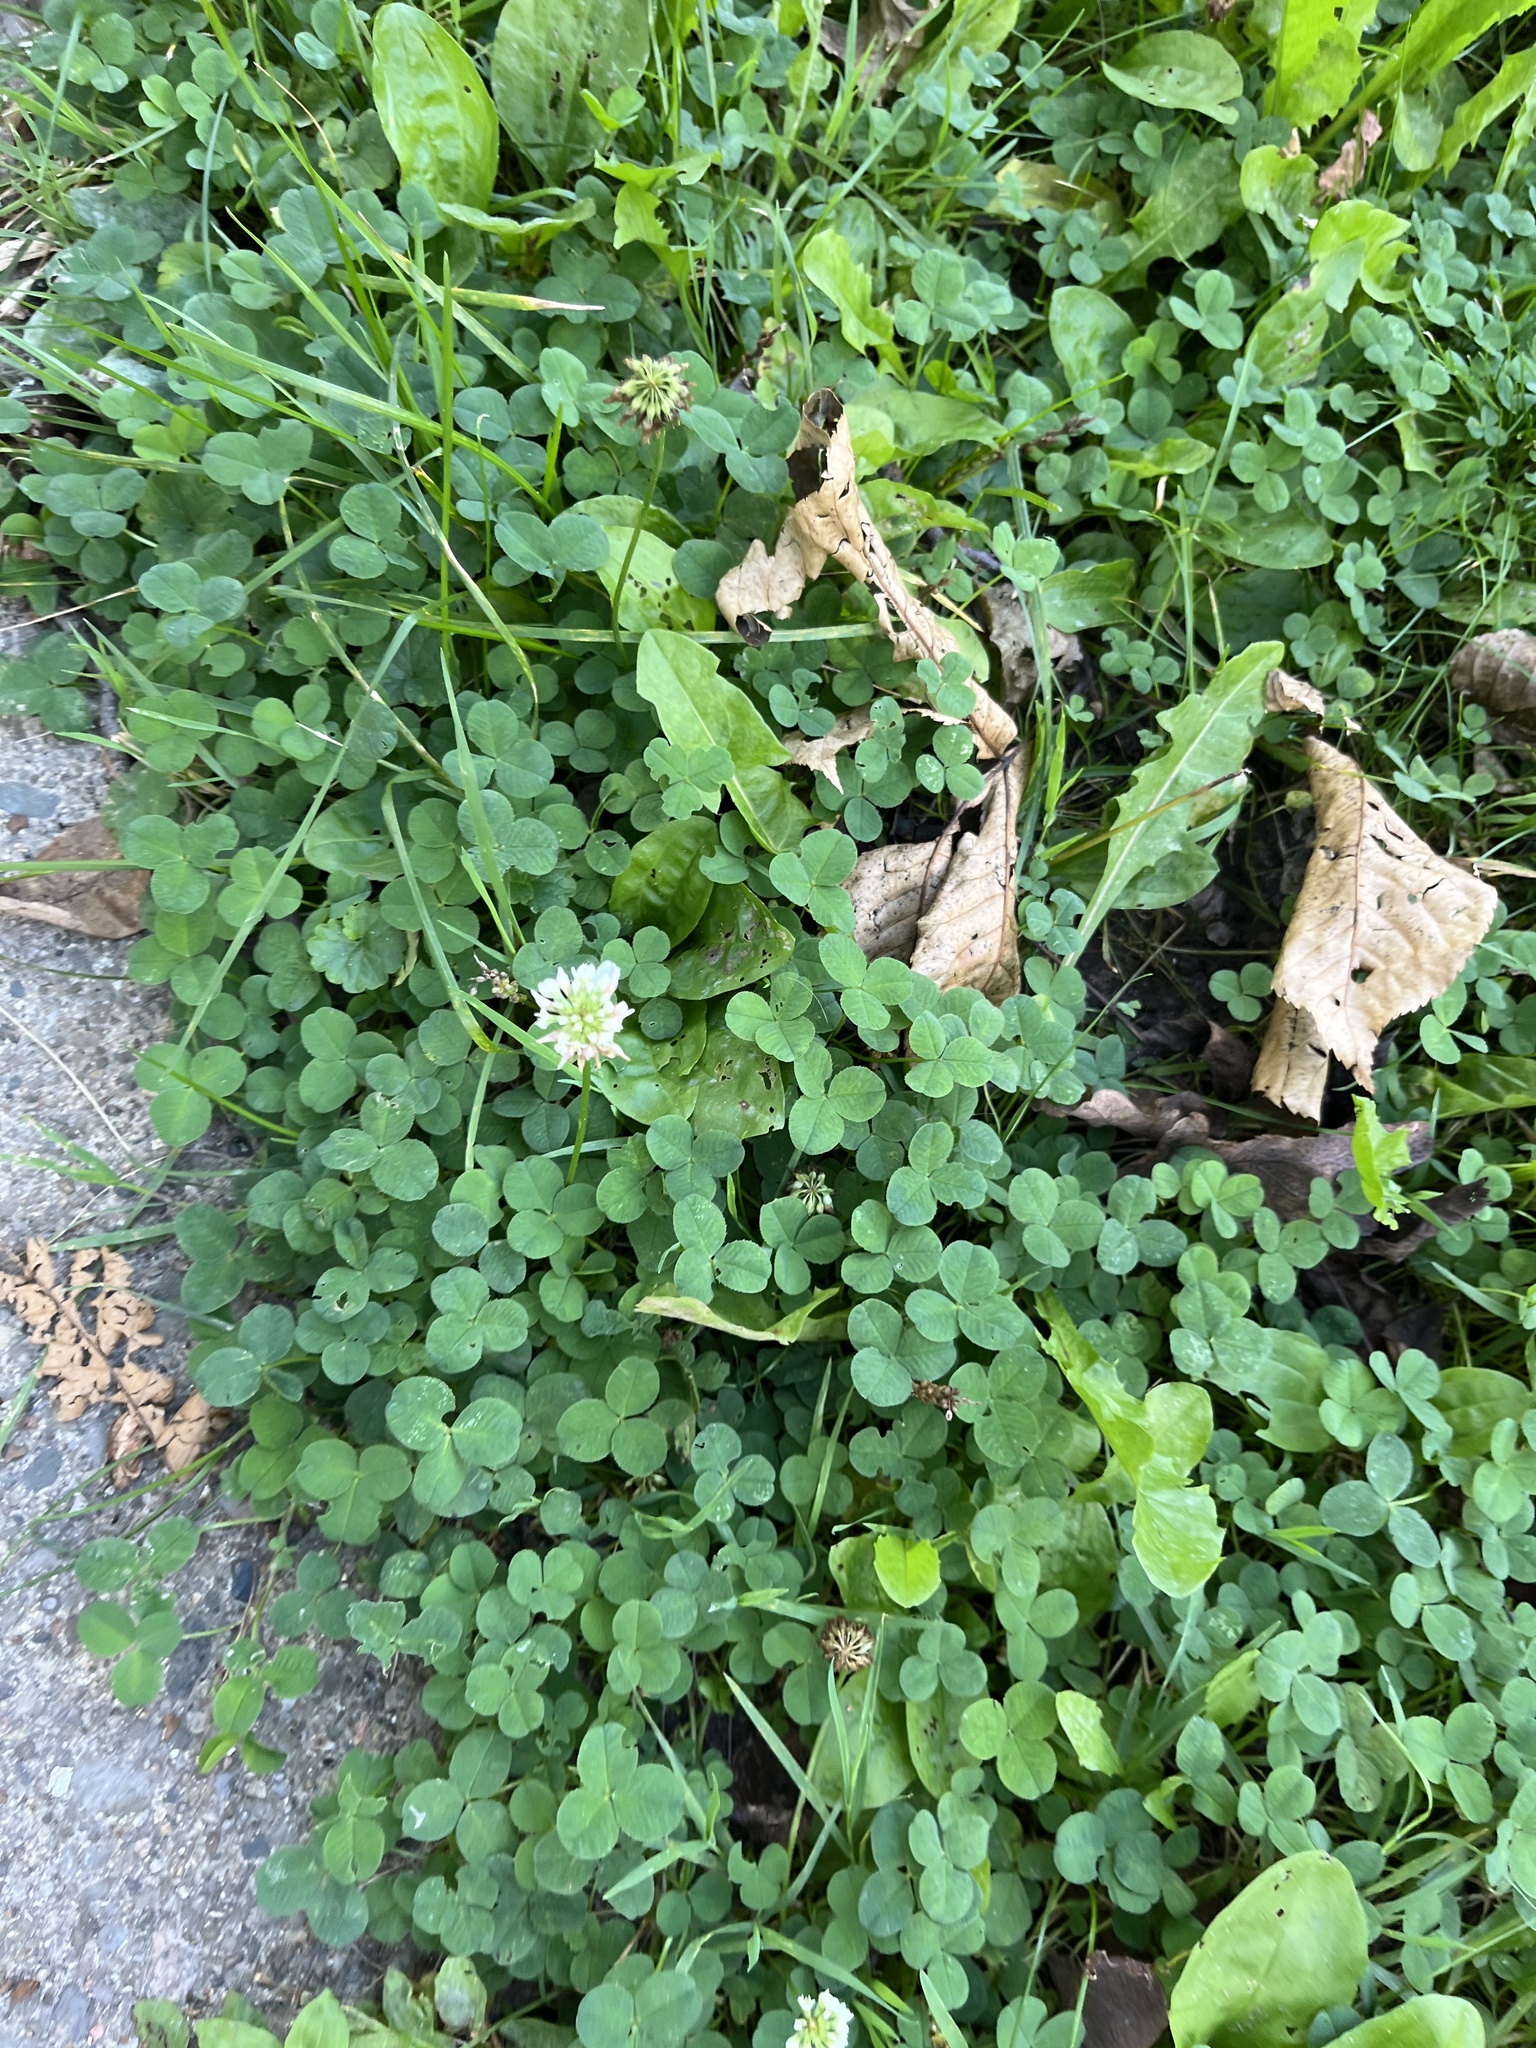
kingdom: Plantae
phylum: Tracheophyta
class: Magnoliopsida
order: Fabales
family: Fabaceae
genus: Trifolium
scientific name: Trifolium repens
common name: White clover
